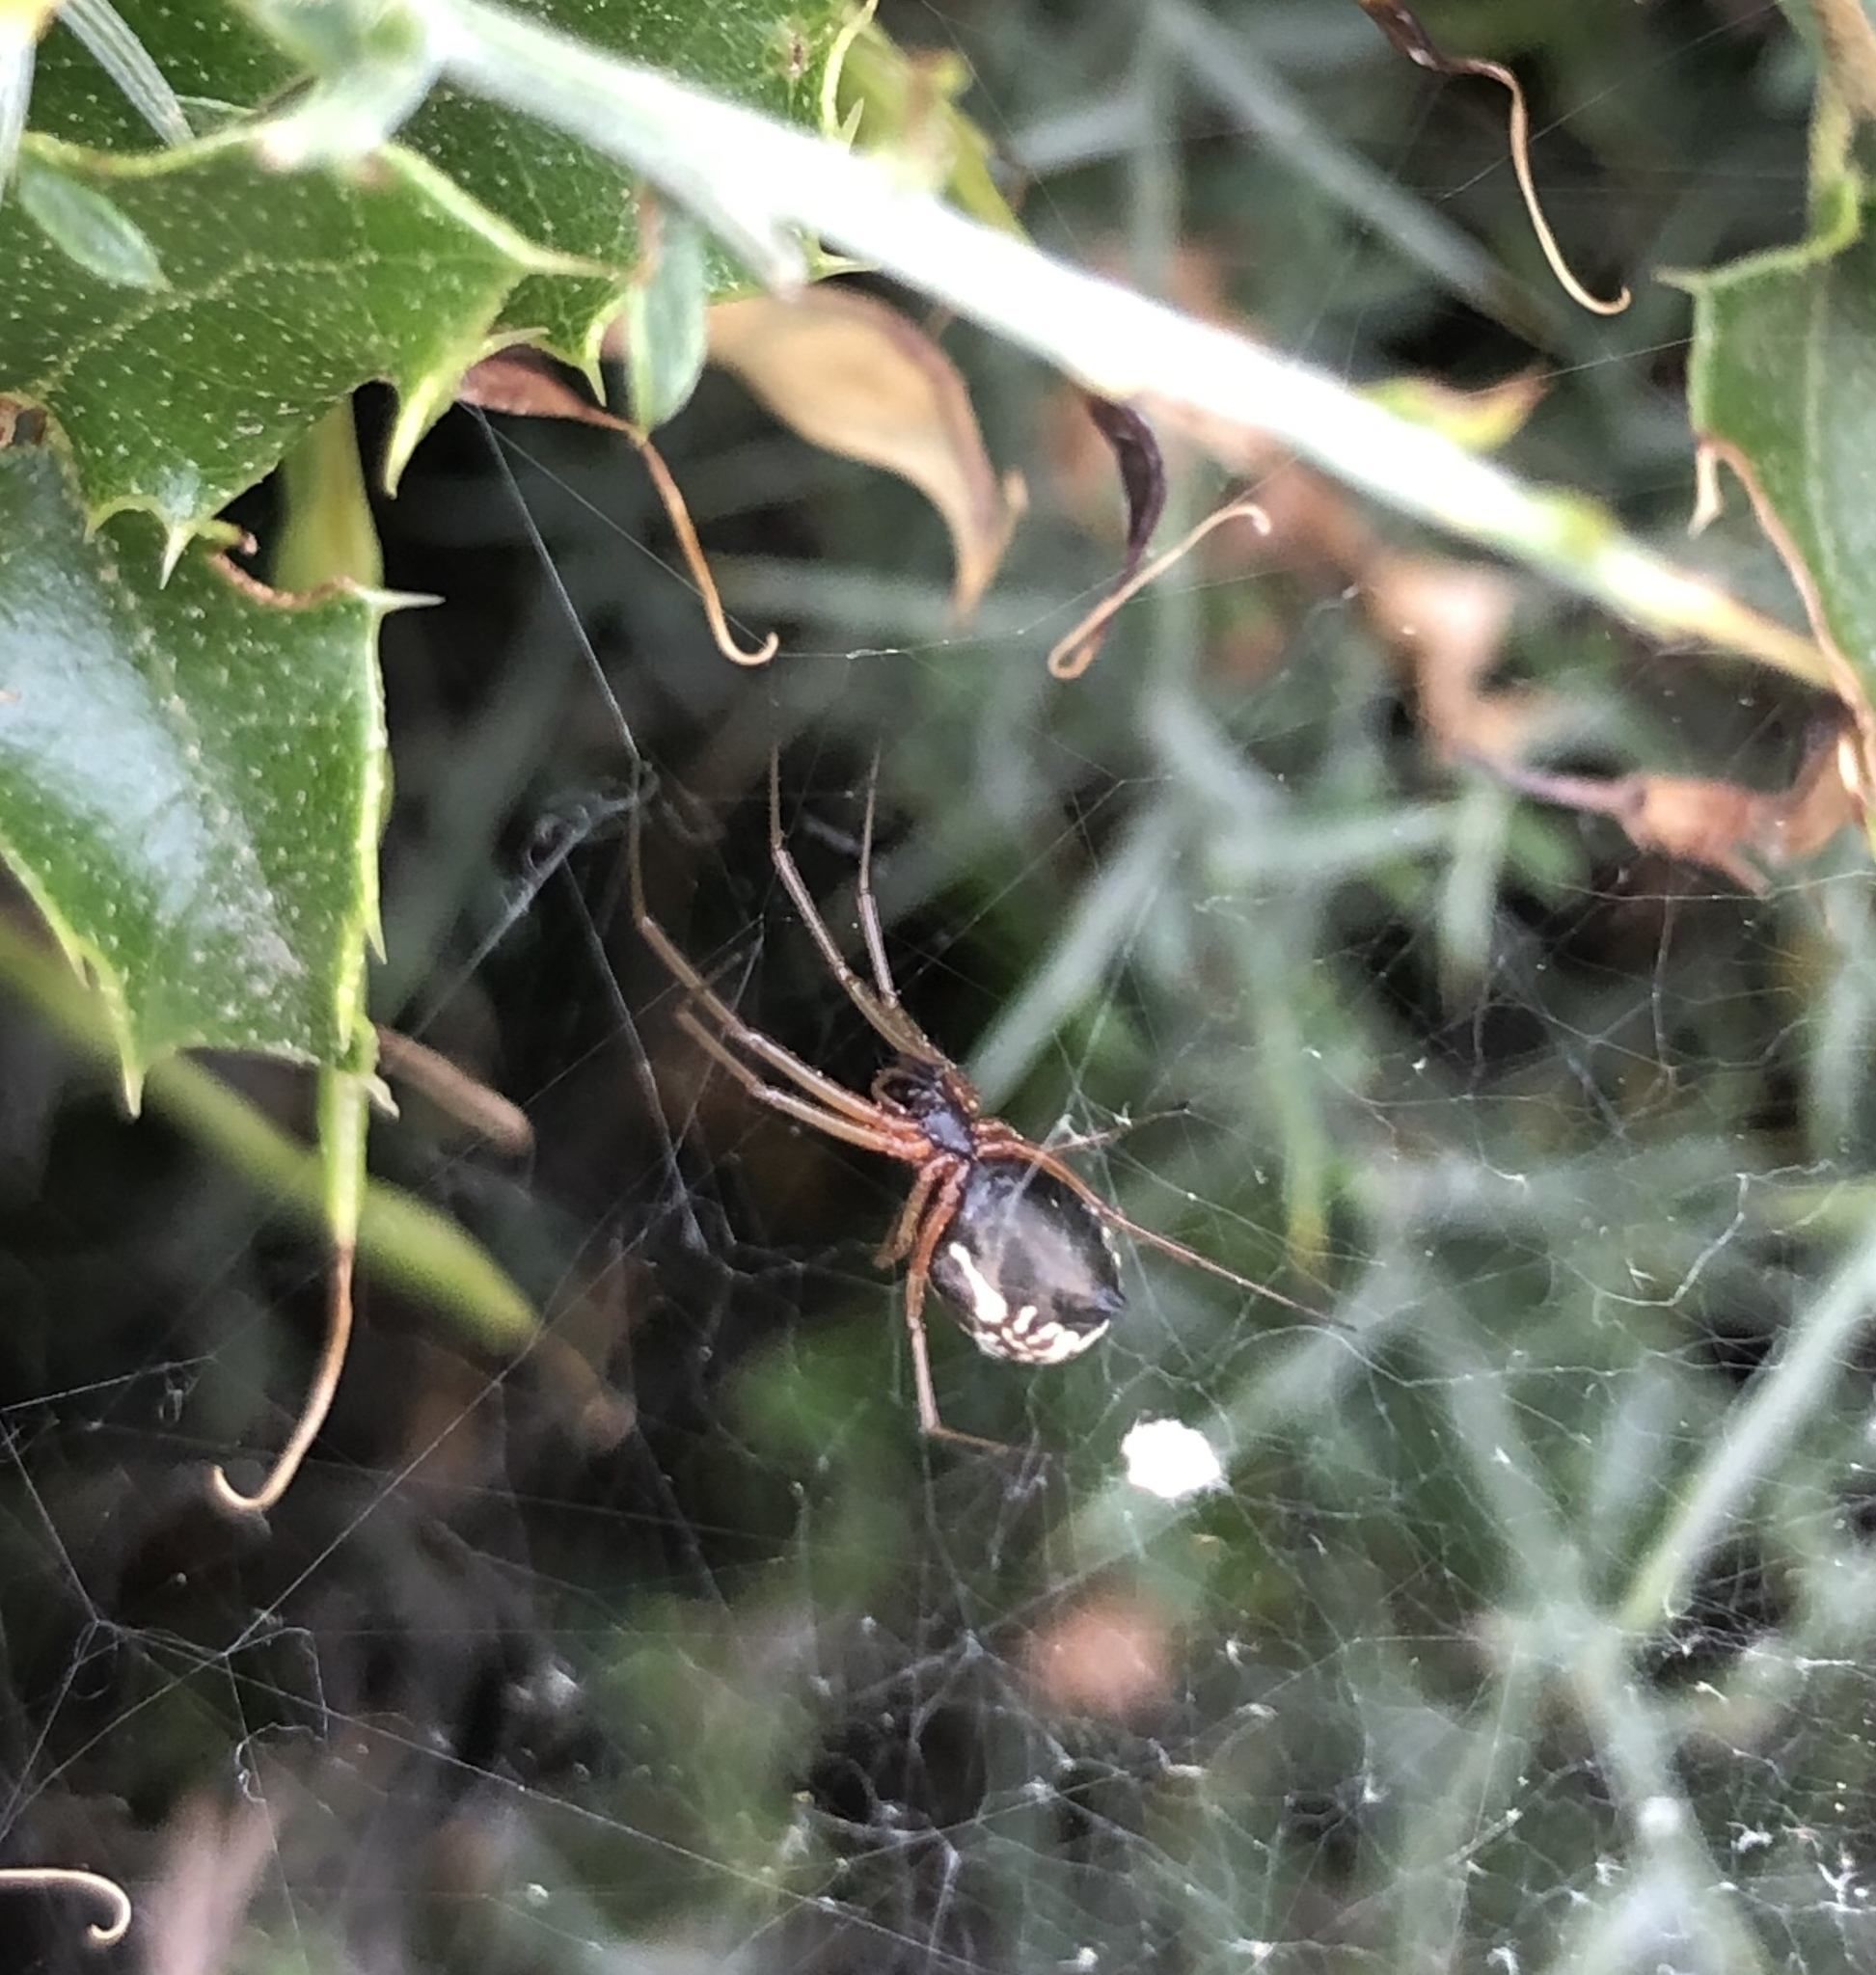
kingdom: Animalia
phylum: Arthropoda
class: Arachnida
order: Araneae
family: Linyphiidae
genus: Frontinellina
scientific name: Frontinellina frutetorum
